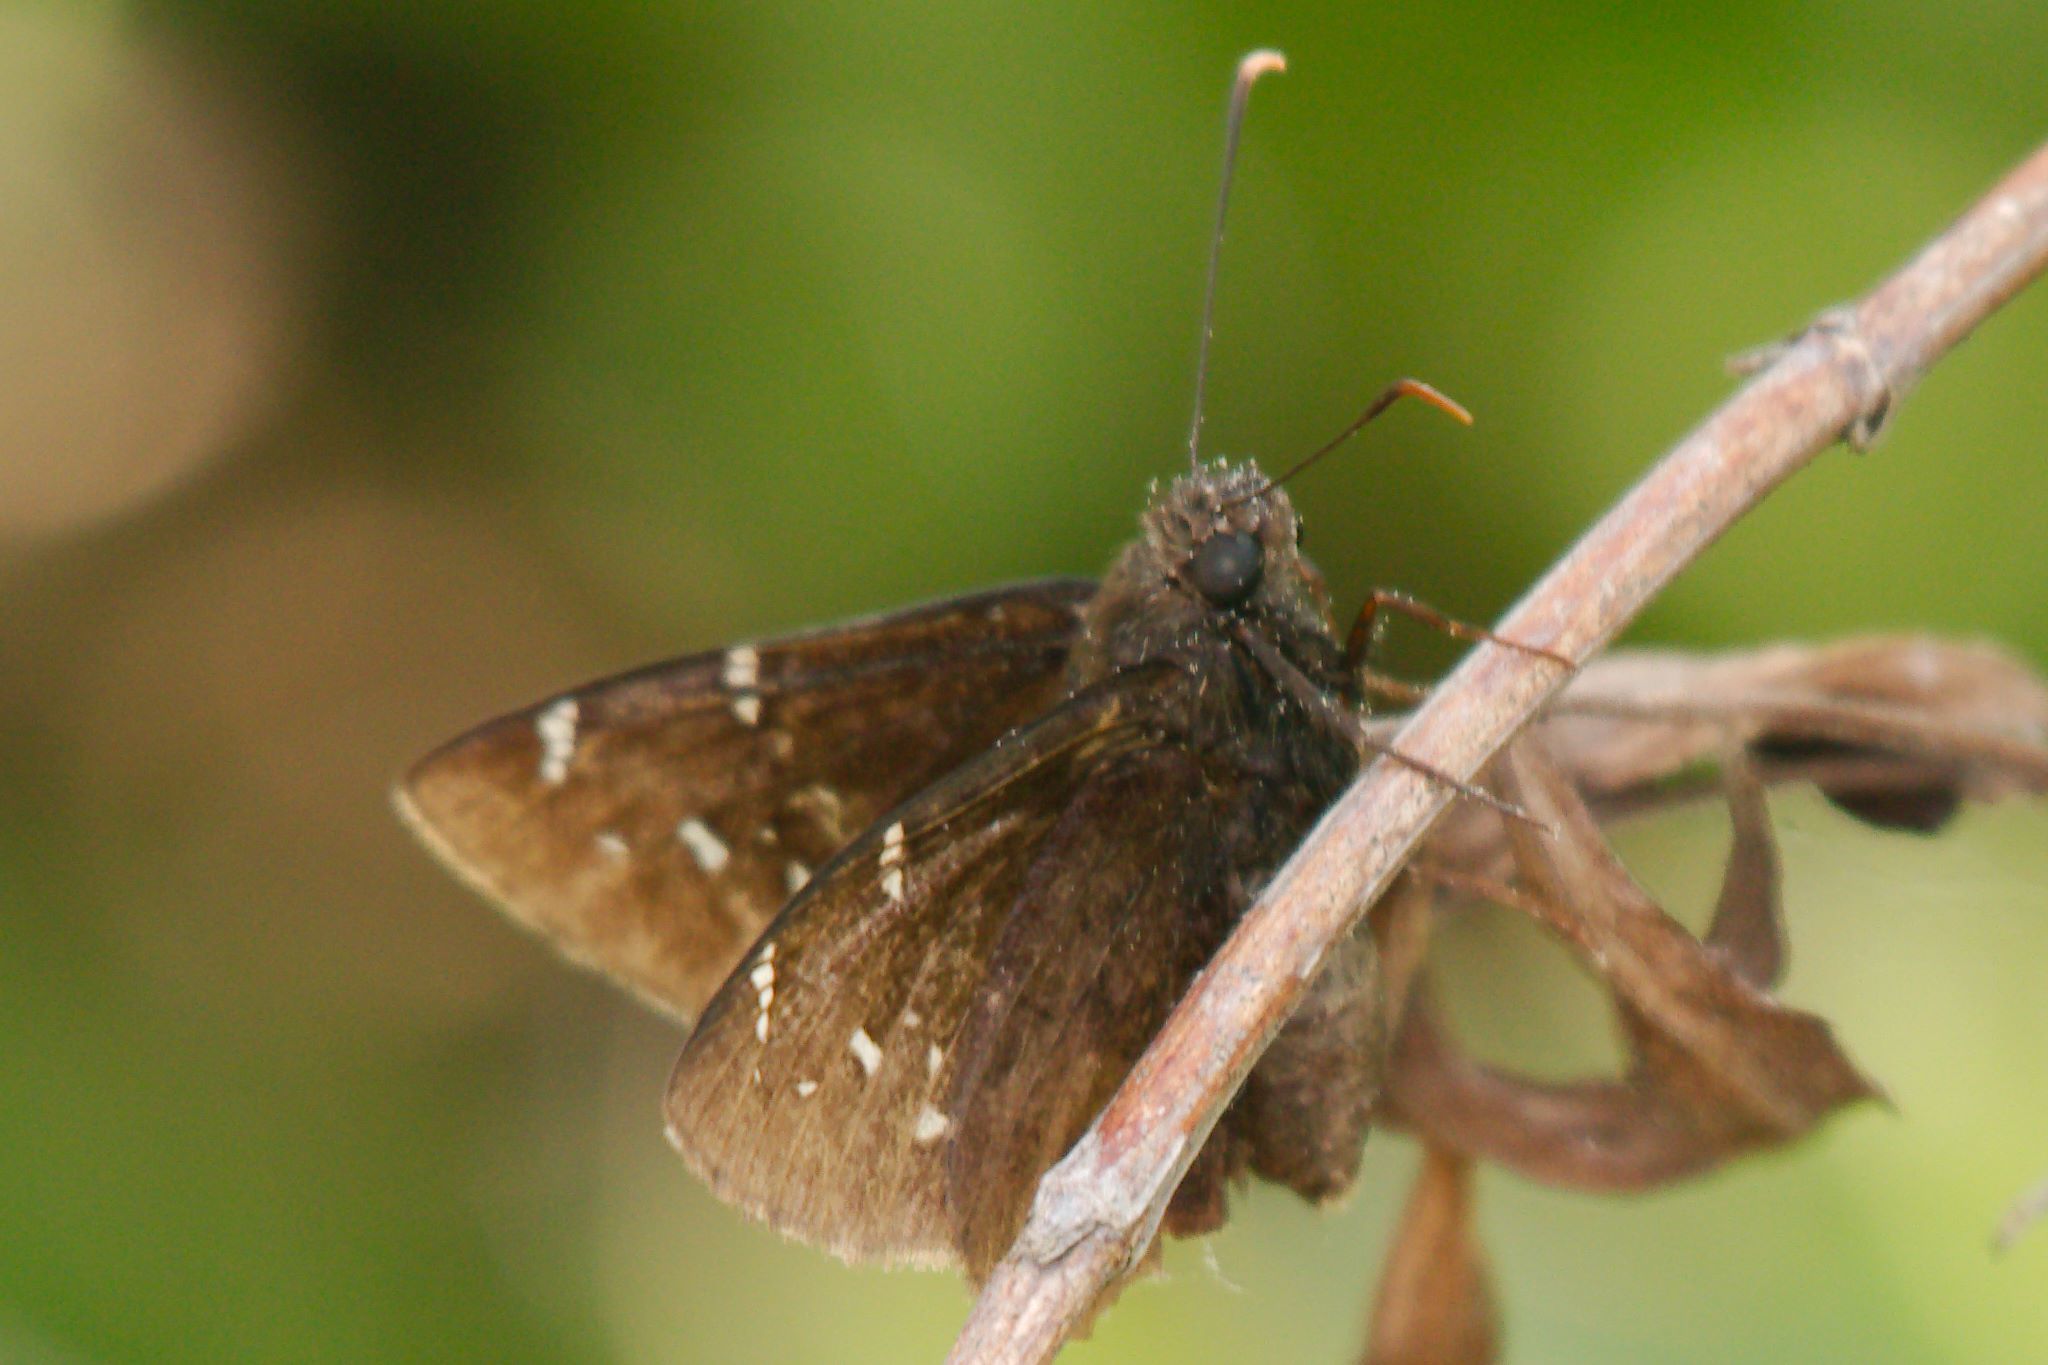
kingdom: Animalia
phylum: Arthropoda
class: Insecta
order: Lepidoptera
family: Hesperiidae
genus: Thorybes
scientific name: Thorybes pylades
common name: Northern cloudywing
